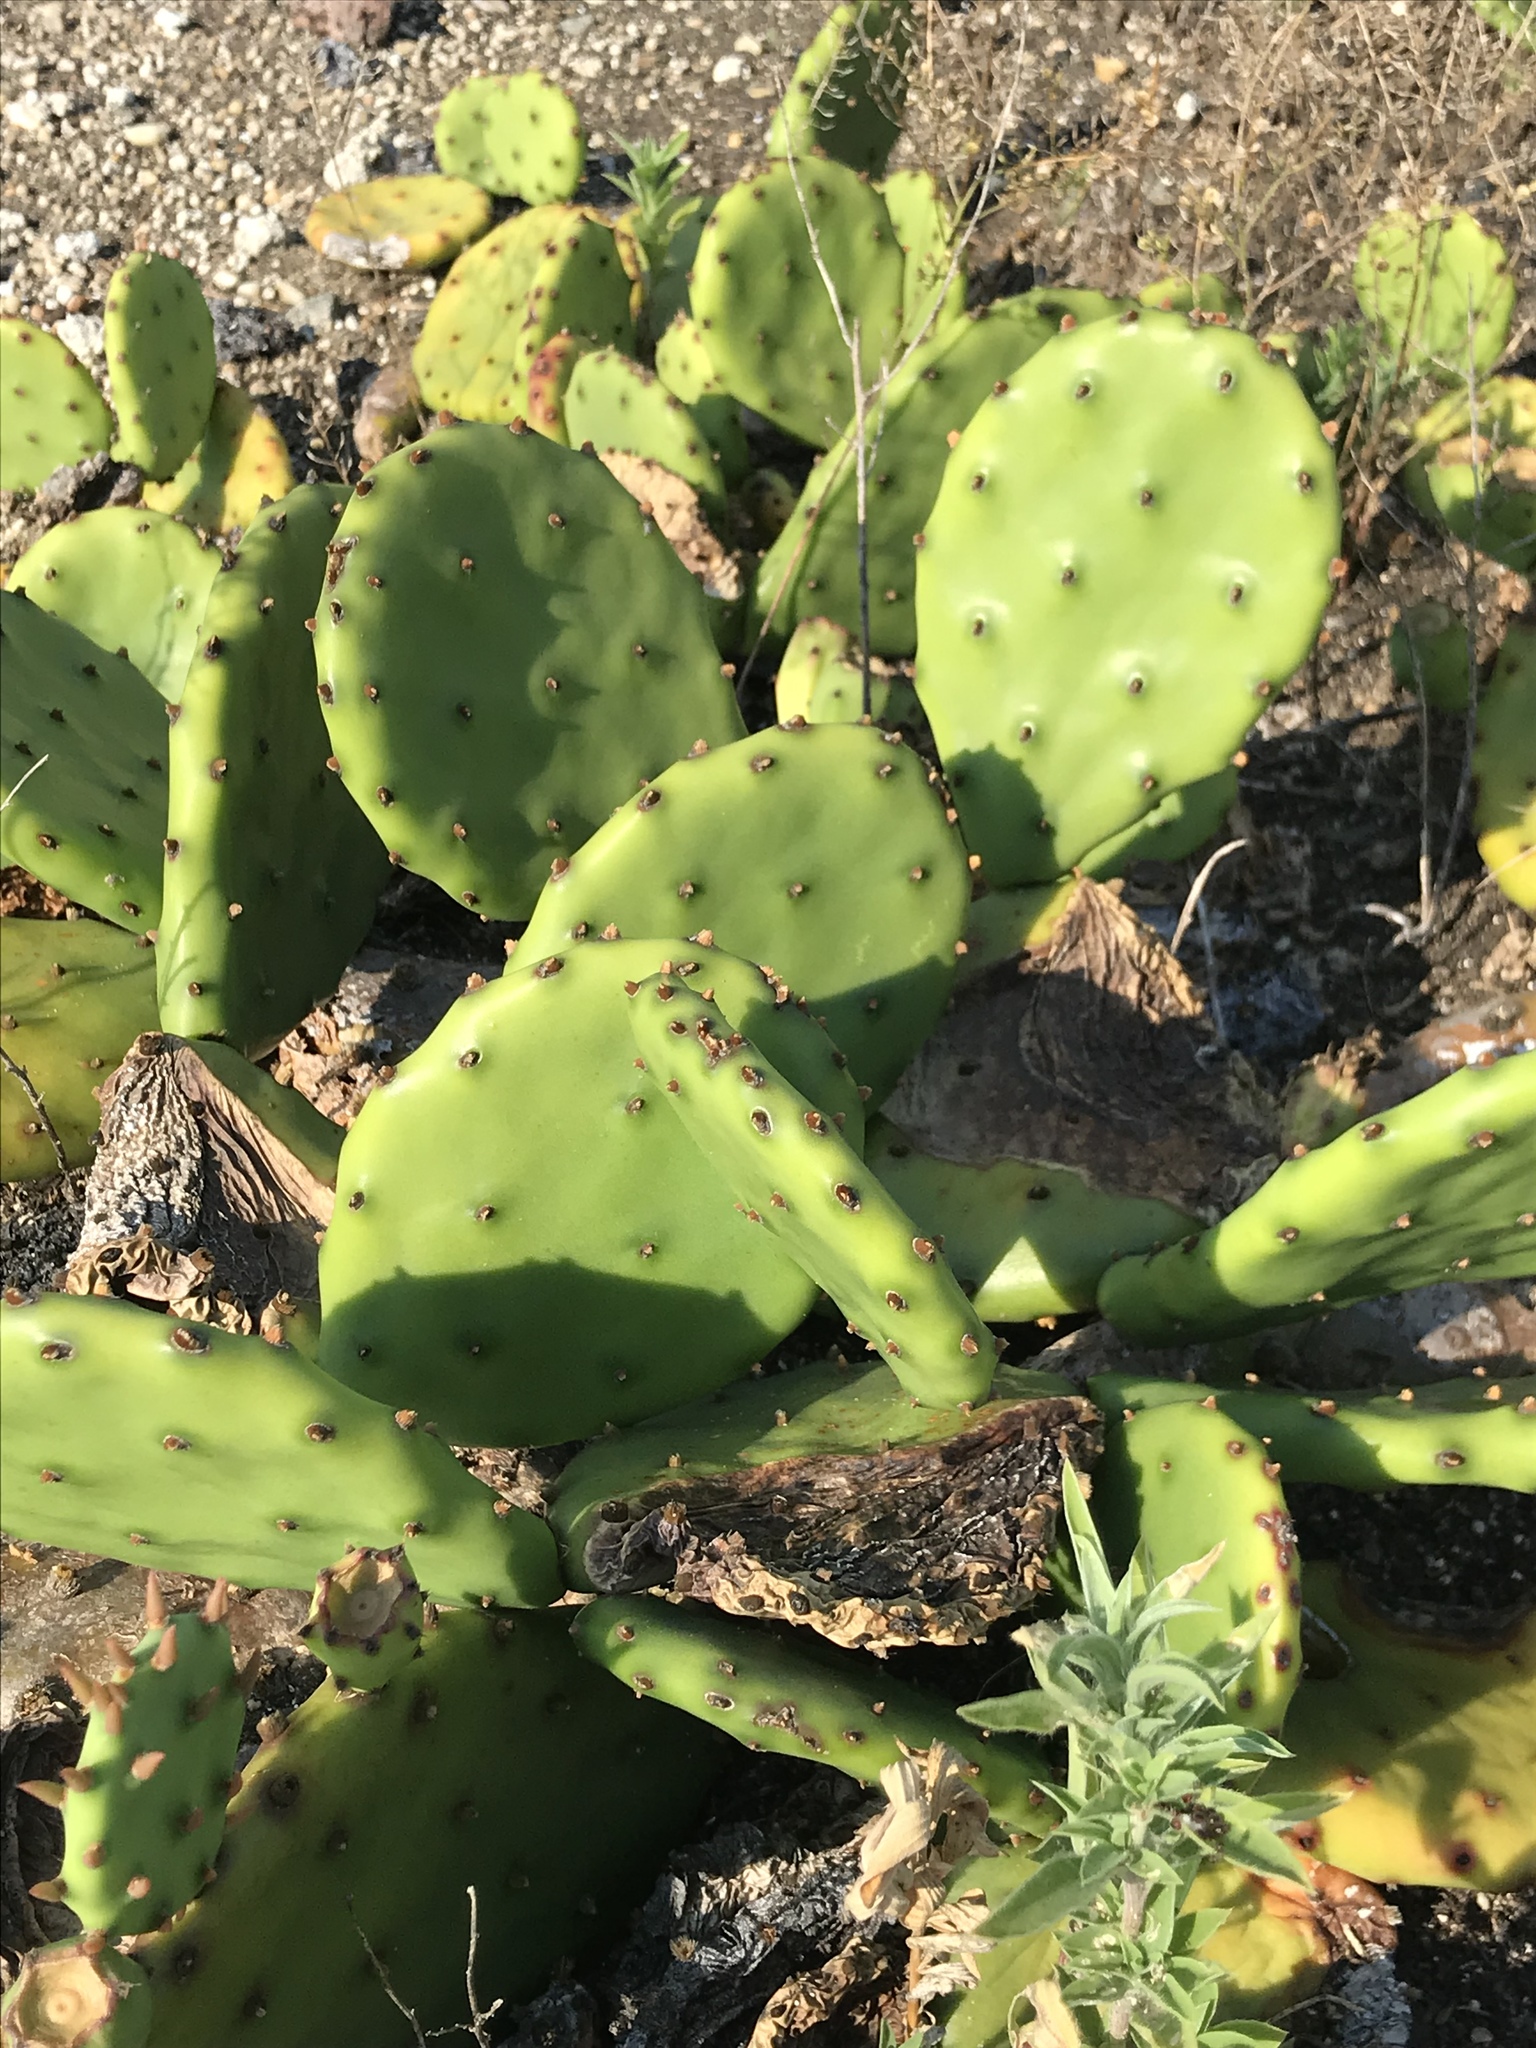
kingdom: Plantae
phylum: Tracheophyta
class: Magnoliopsida
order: Caryophyllales
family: Cactaceae
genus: Opuntia
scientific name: Opuntia humifusa
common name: Eastern prickly-pear
